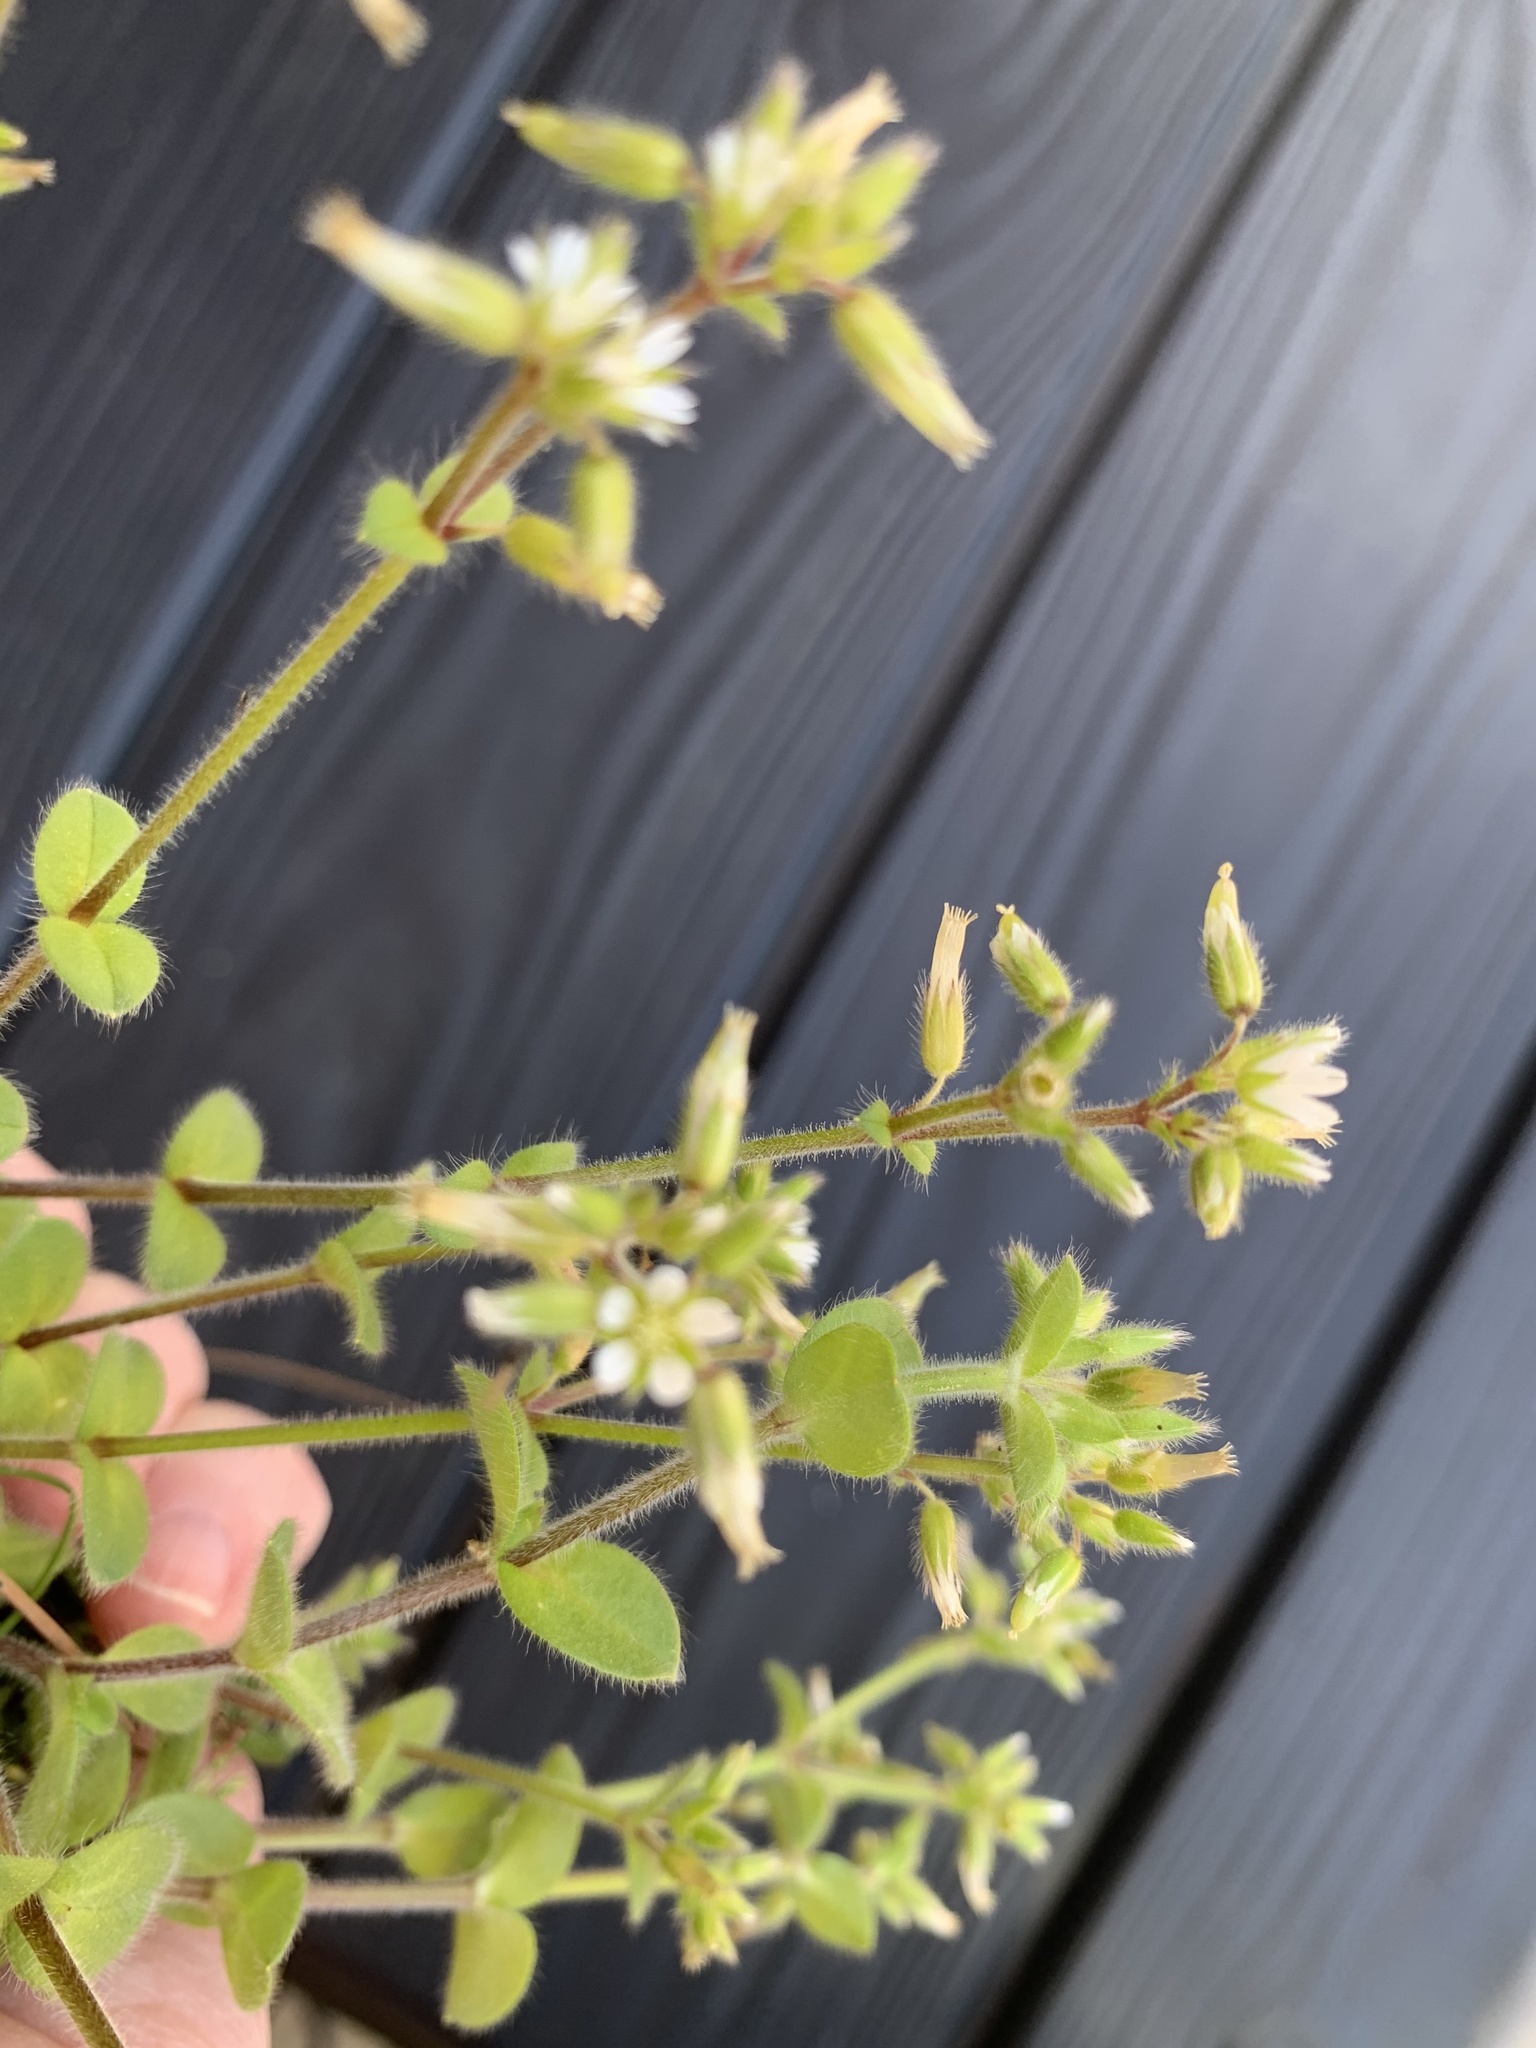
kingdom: Plantae
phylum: Tracheophyta
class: Magnoliopsida
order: Caryophyllales
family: Caryophyllaceae
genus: Cerastium
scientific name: Cerastium glomeratum
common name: Sticky chickweed
